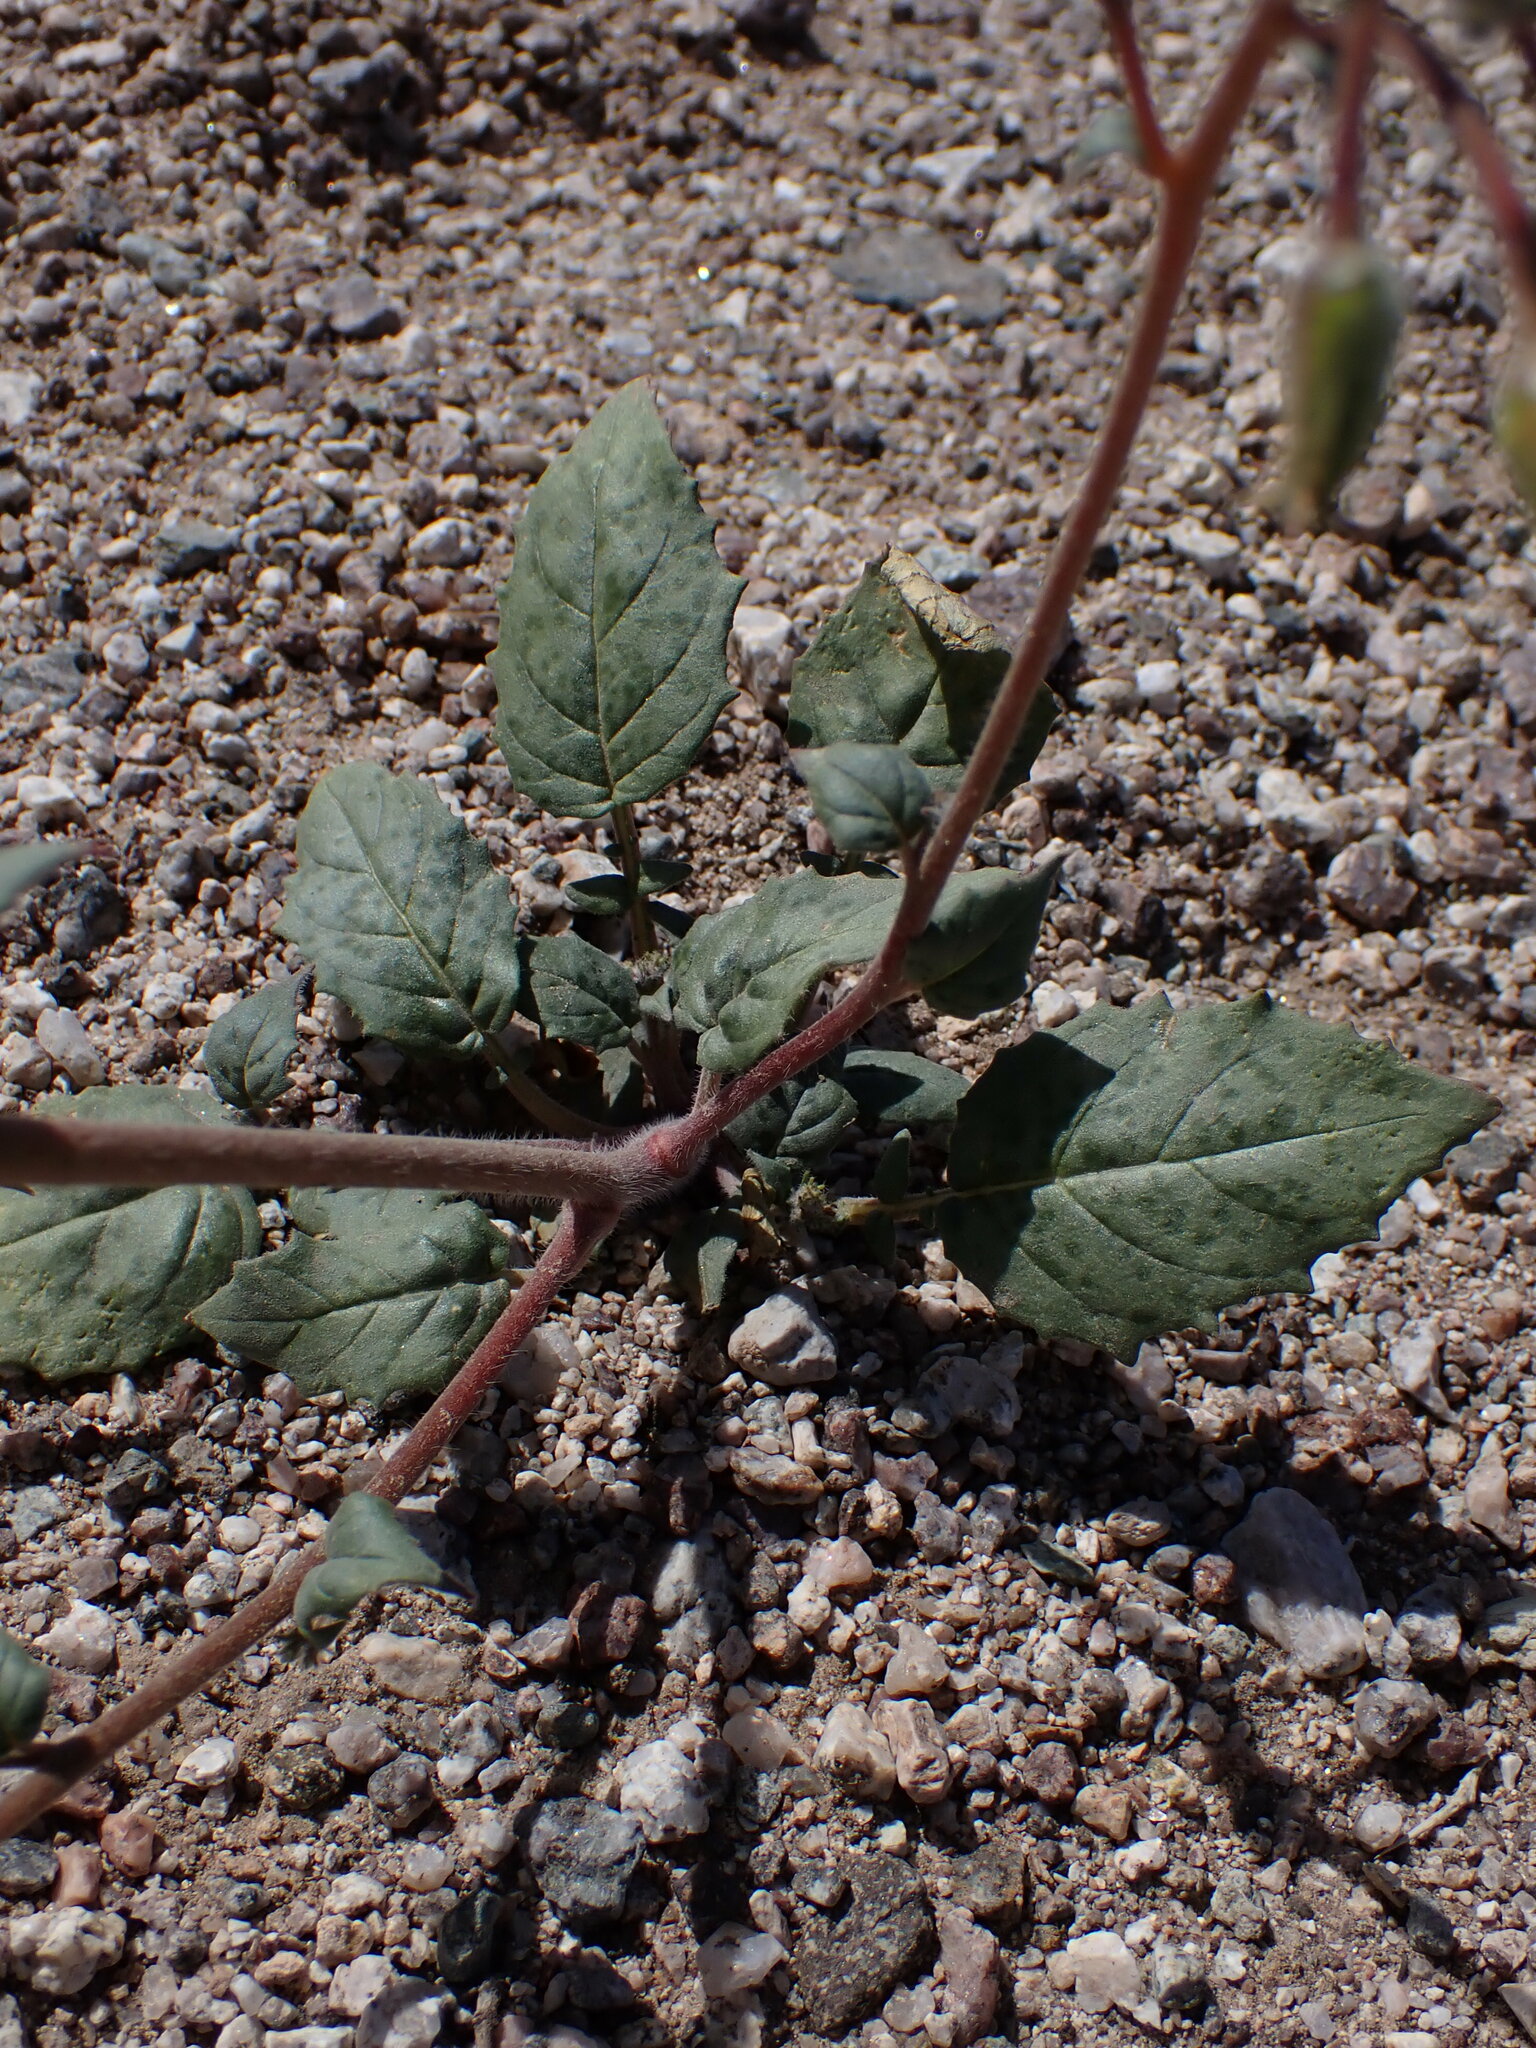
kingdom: Plantae
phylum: Tracheophyta
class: Magnoliopsida
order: Myrtales
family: Onagraceae
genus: Chylismia
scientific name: Chylismia brevipes
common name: Yellow cups
